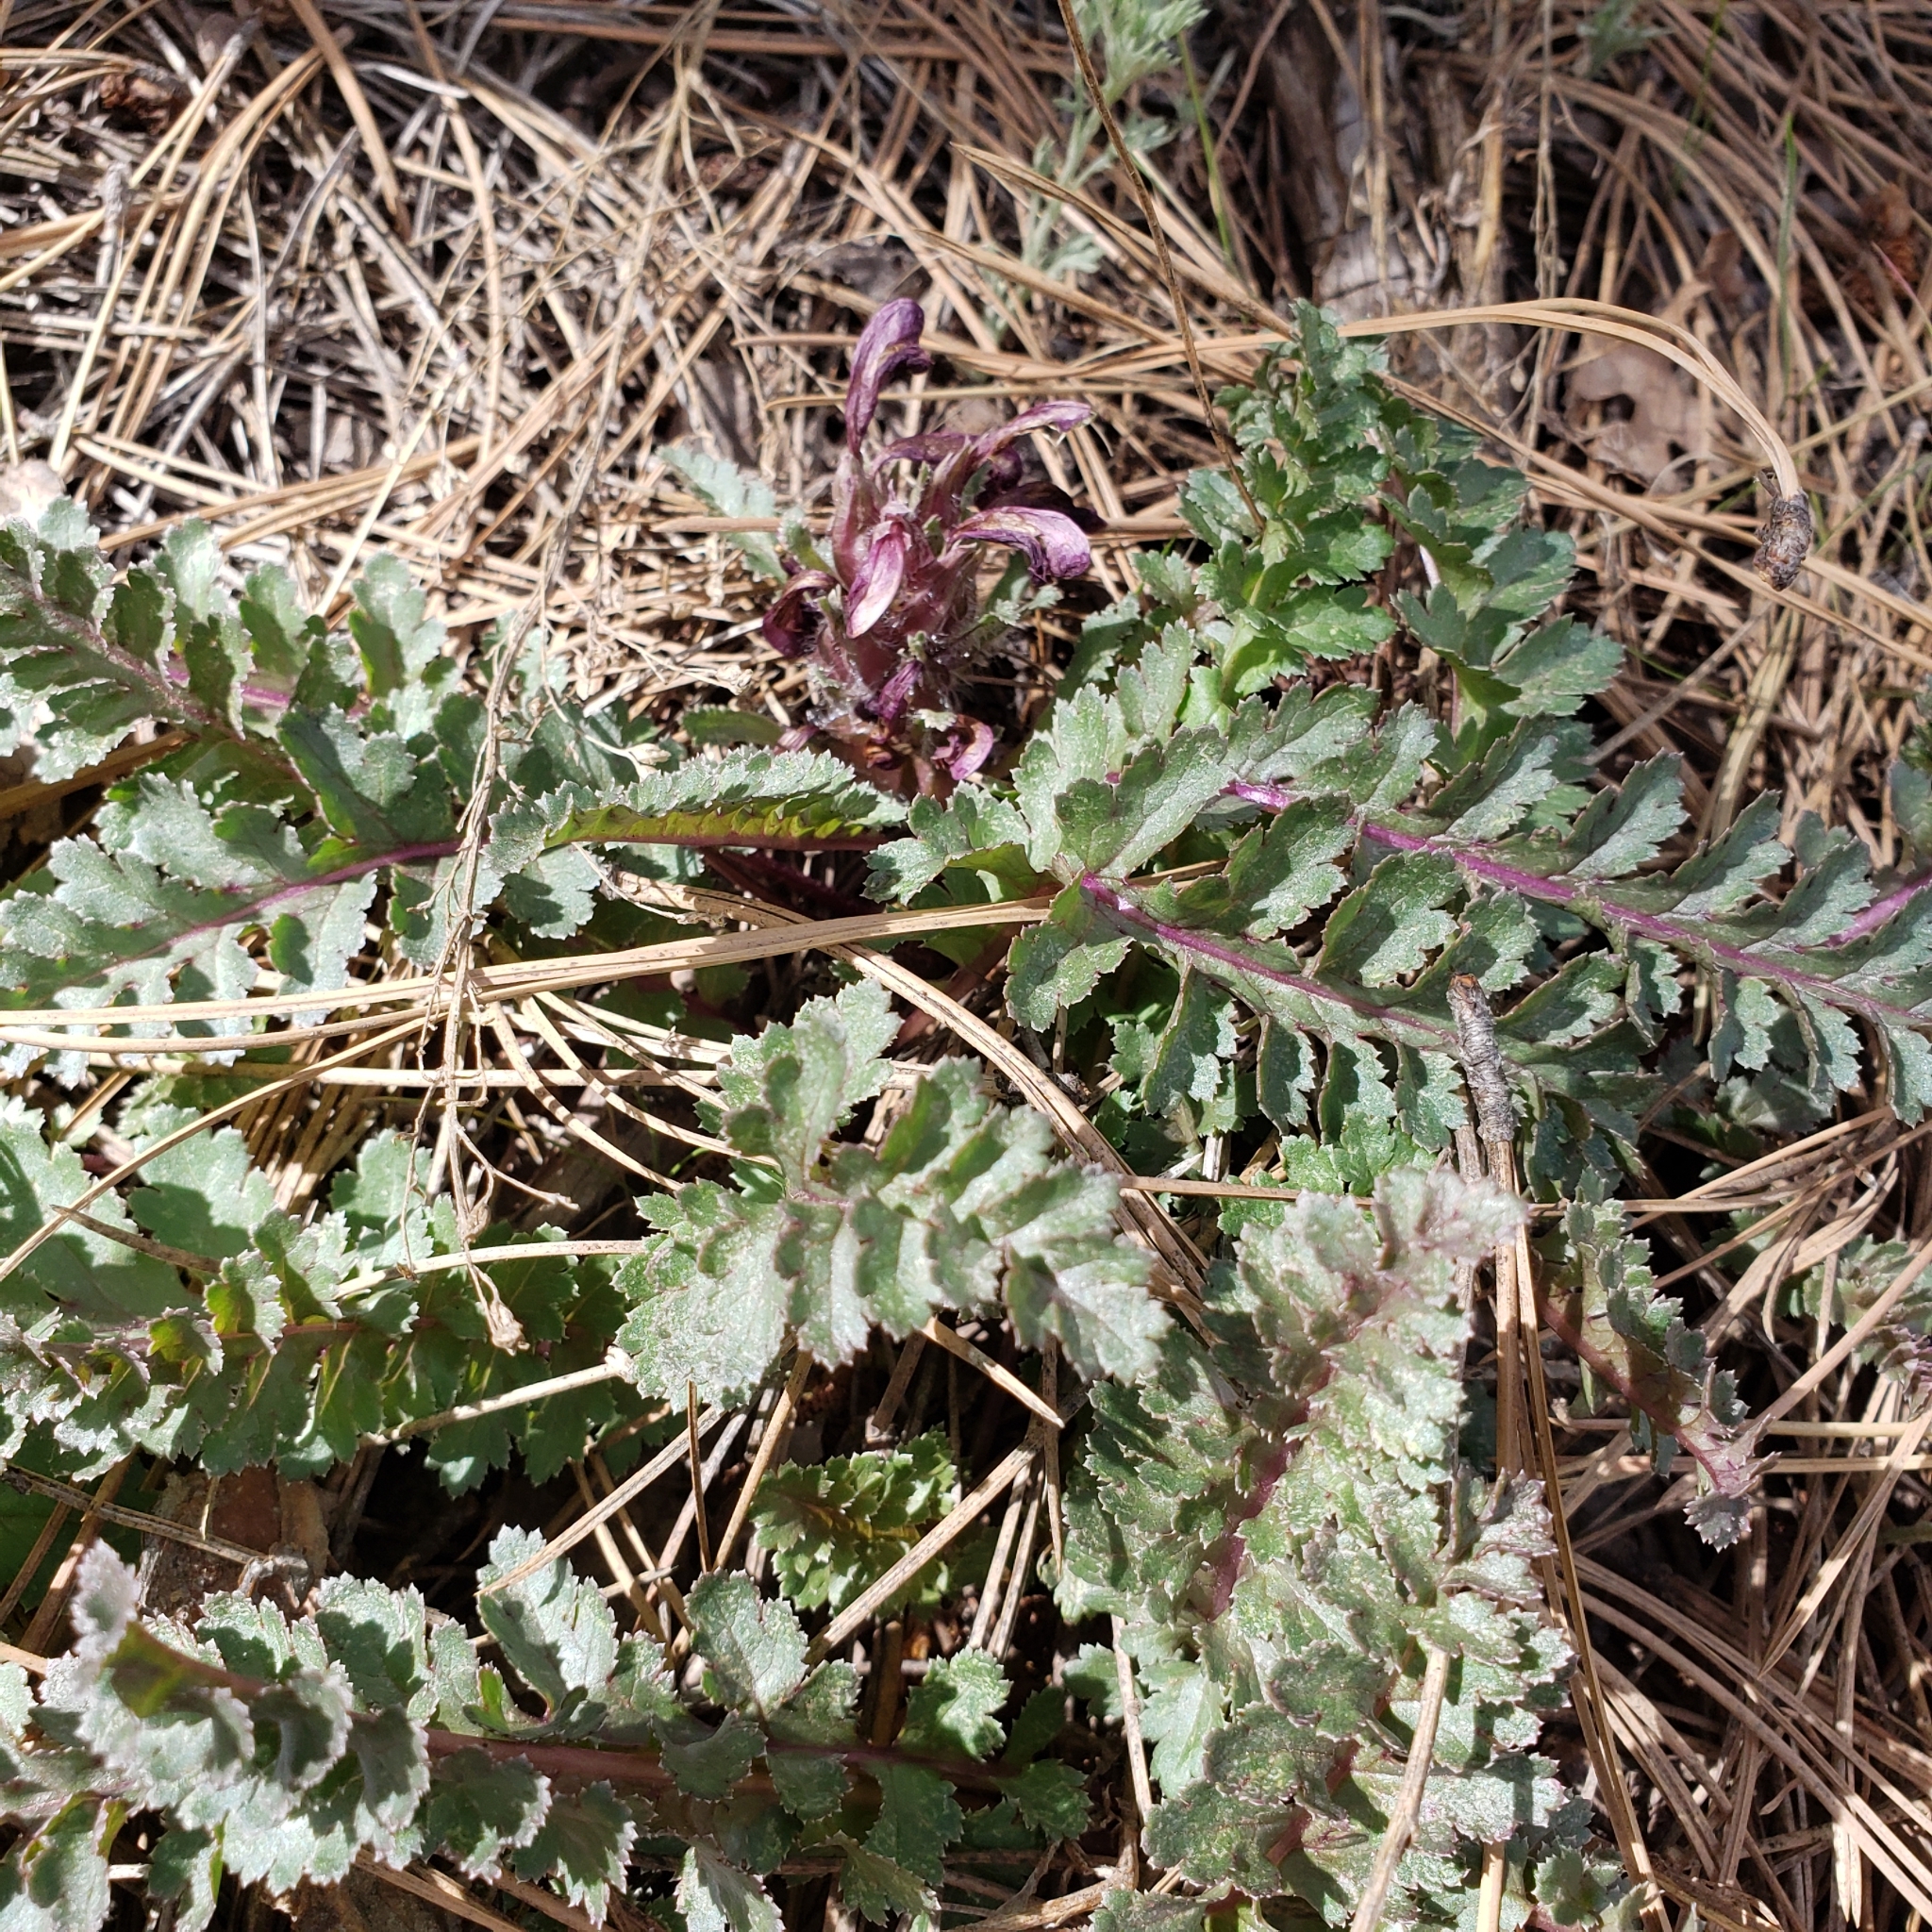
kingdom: Plantae
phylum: Tracheophyta
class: Magnoliopsida
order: Lamiales
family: Orobanchaceae
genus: Pedicularis
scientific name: Pedicularis centranthera
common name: Dwarf lousewort
